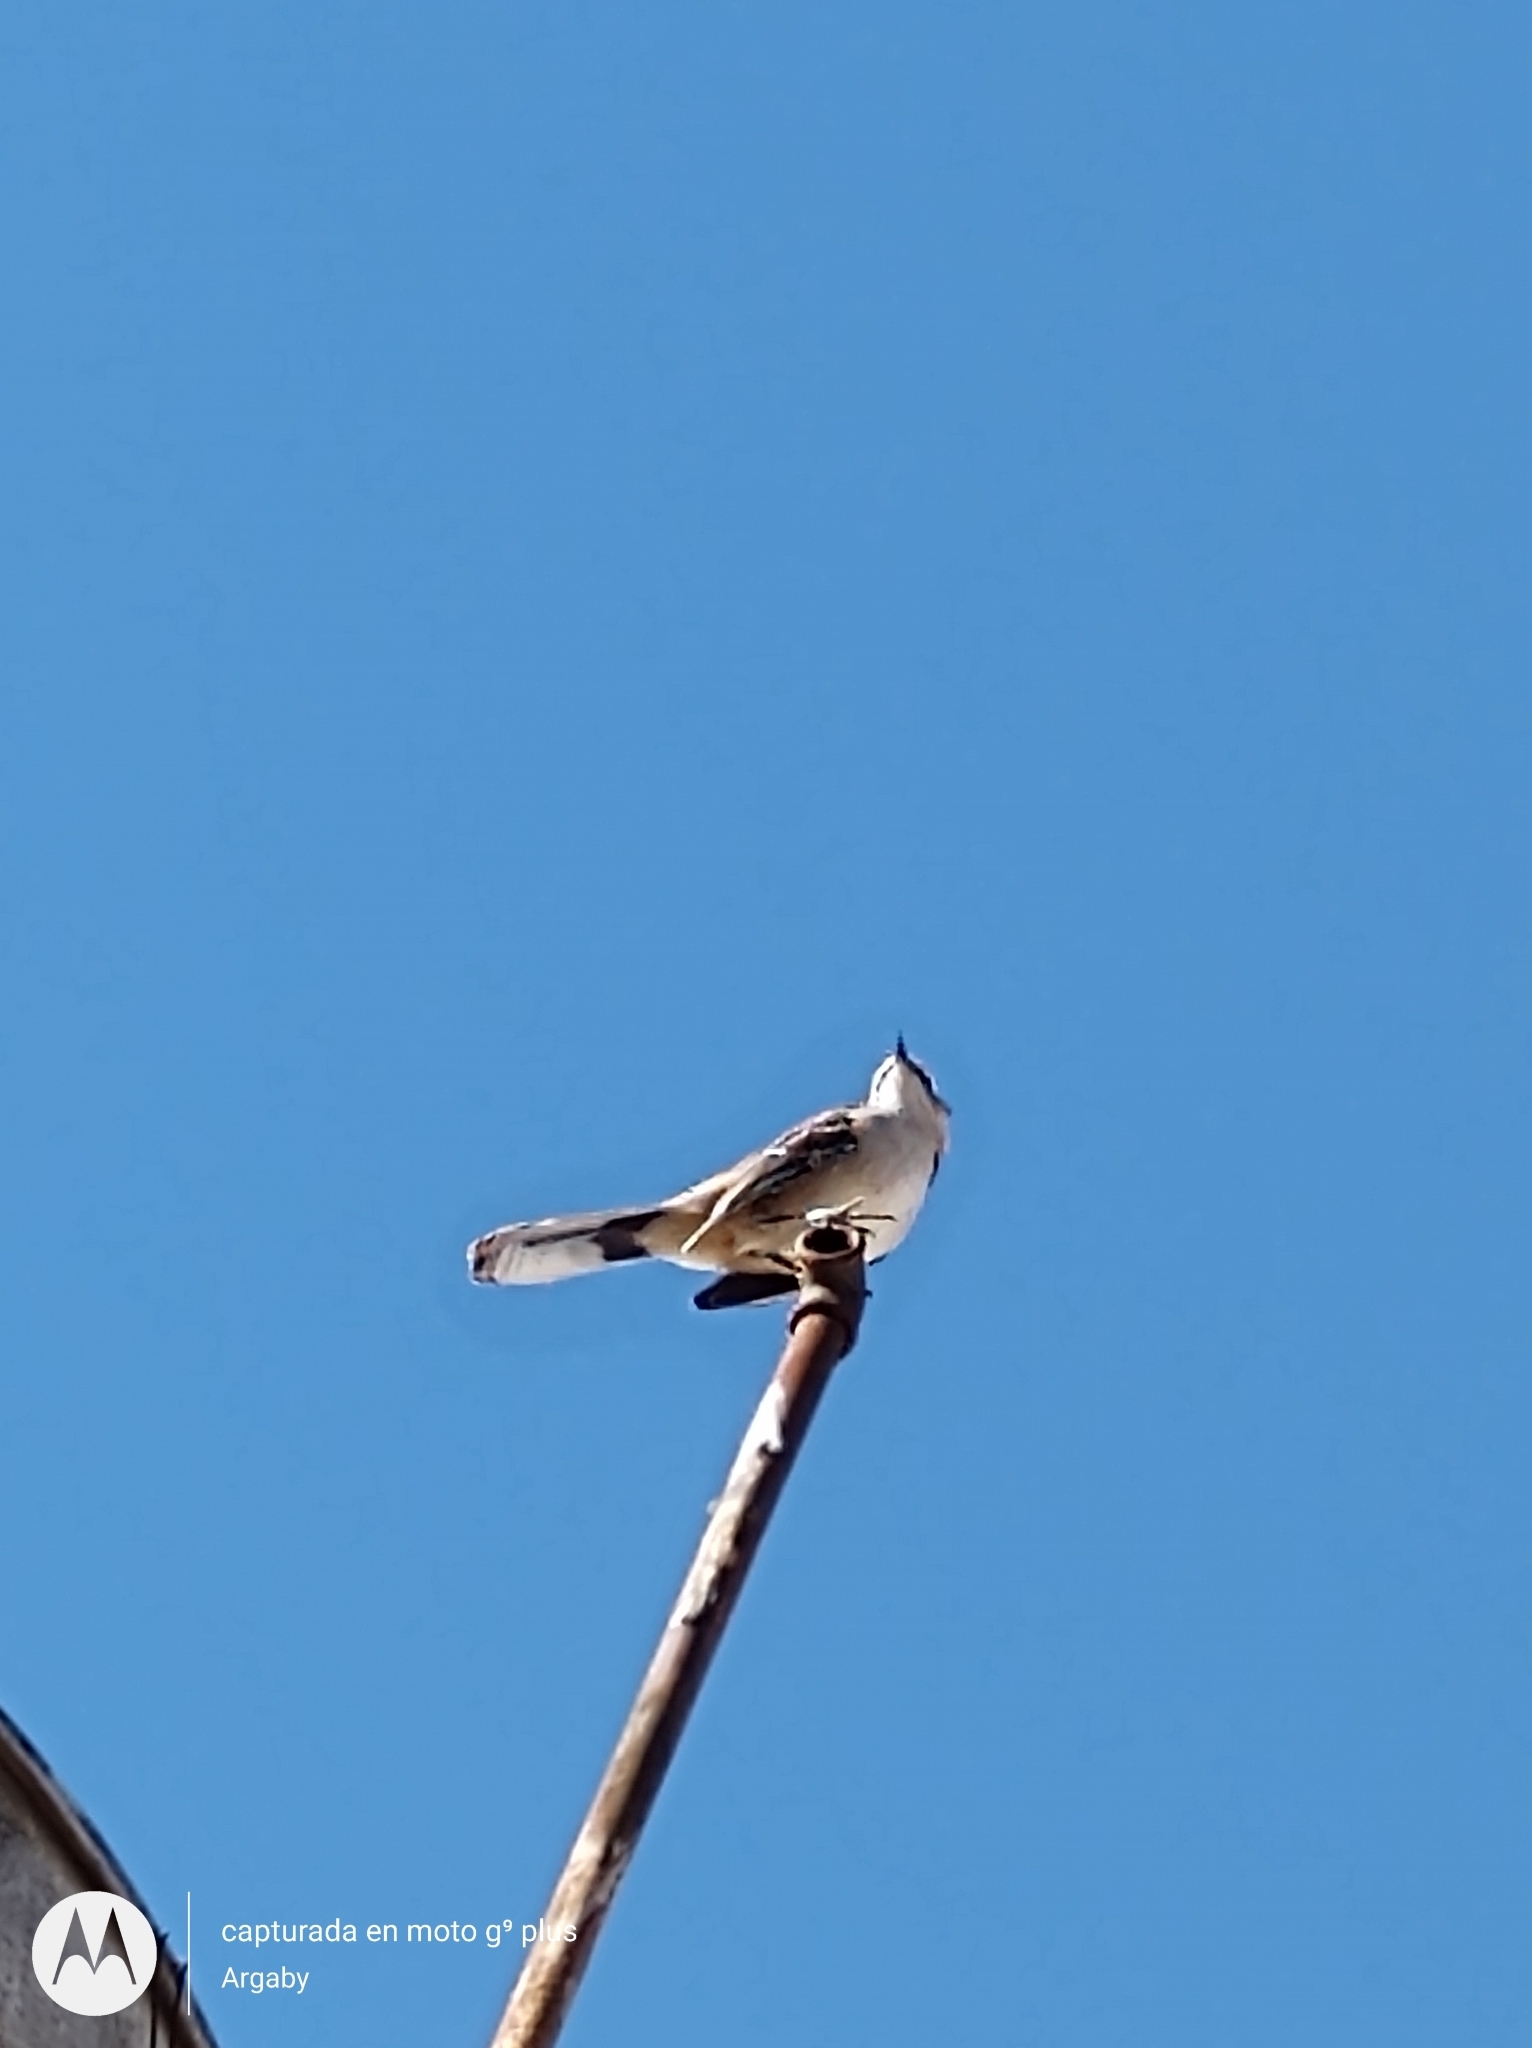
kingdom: Animalia
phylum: Chordata
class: Aves
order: Passeriformes
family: Mimidae
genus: Mimus
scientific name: Mimus saturninus
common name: Chalk-browed mockingbird
